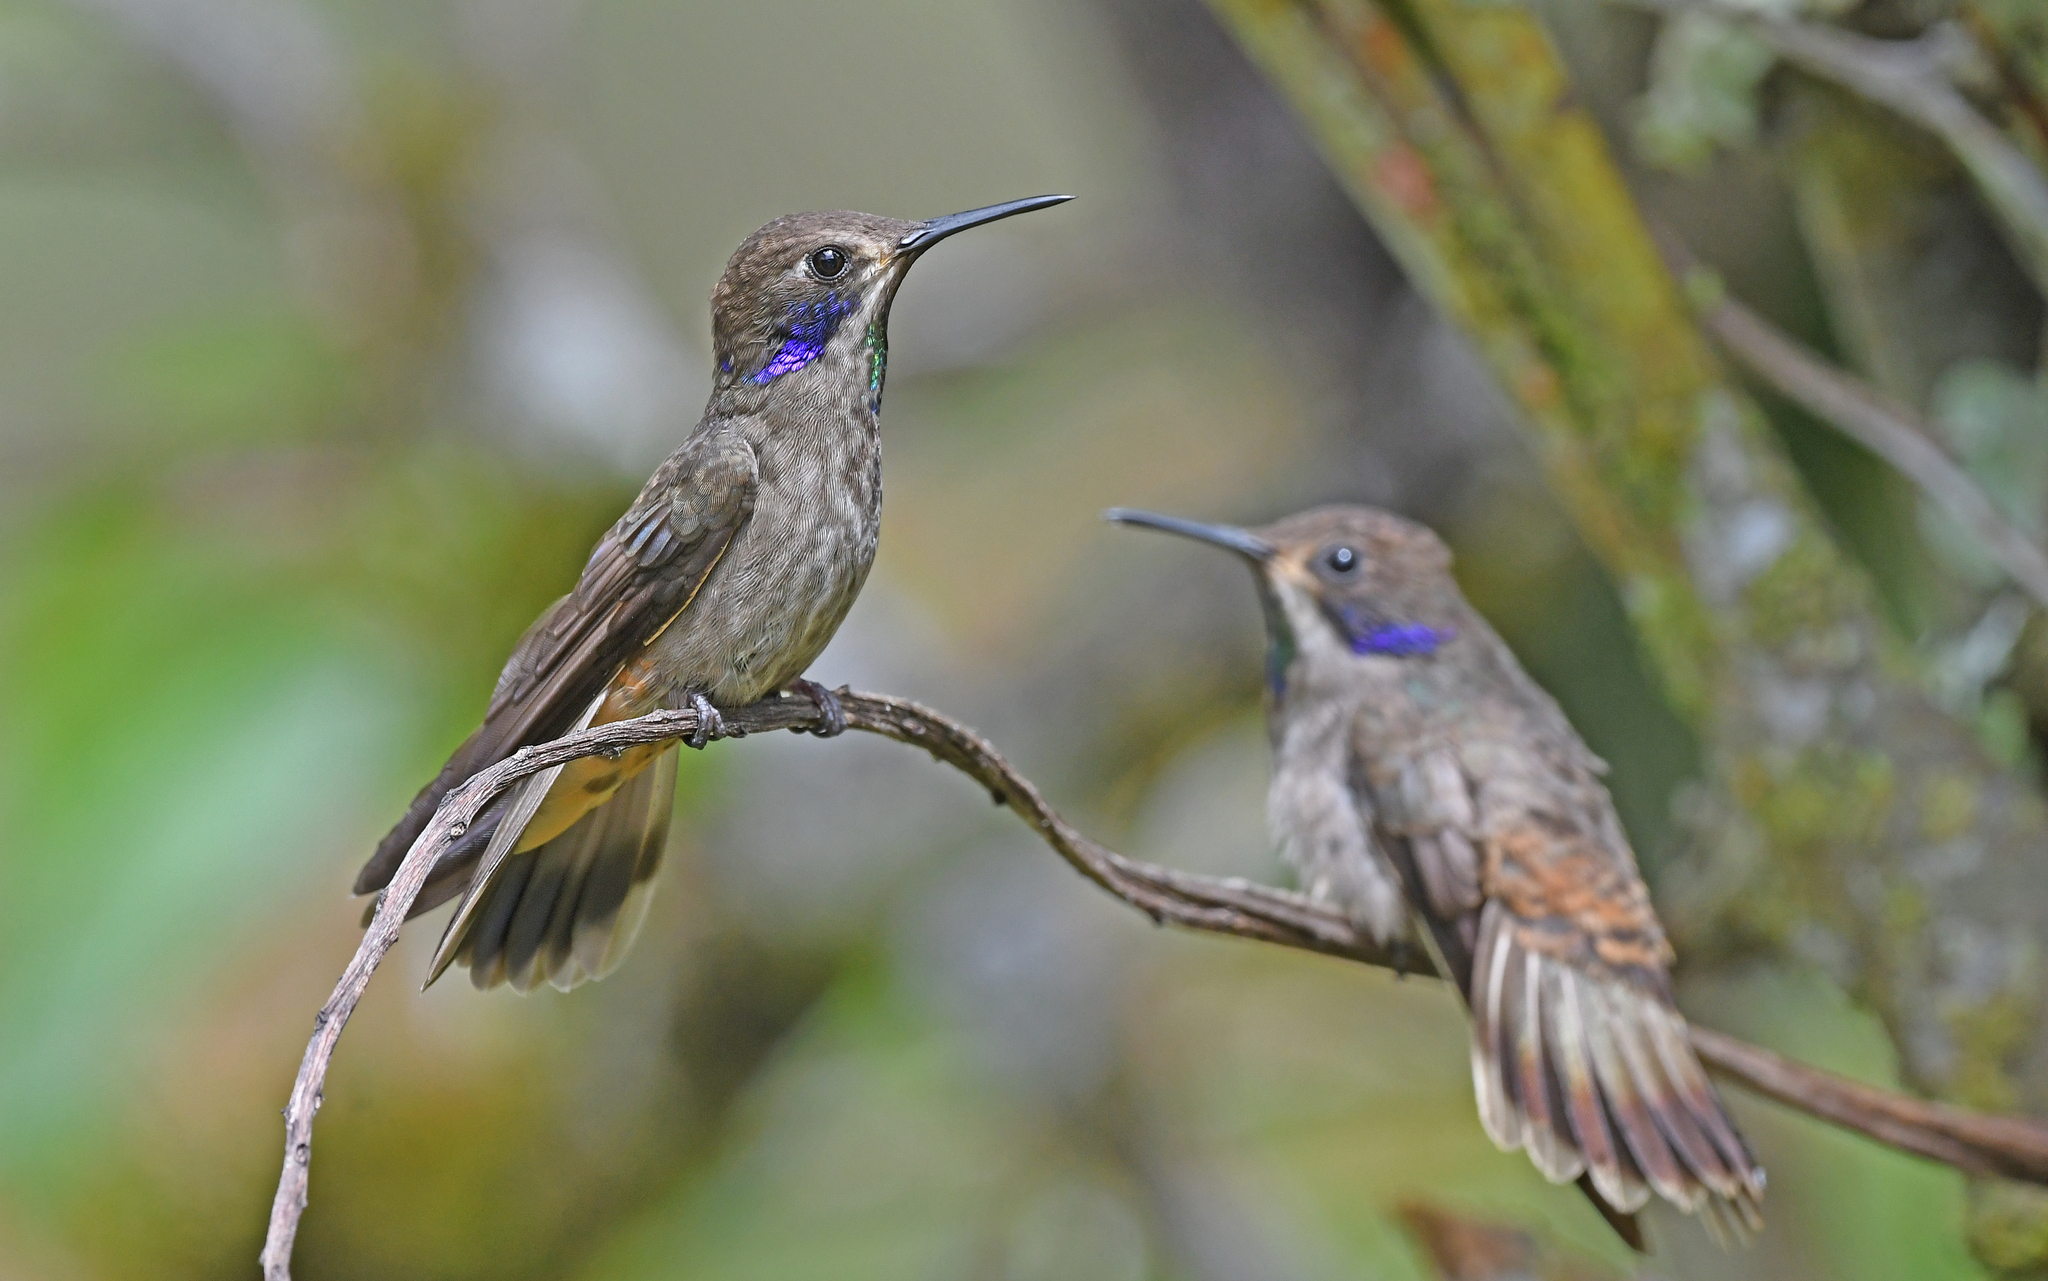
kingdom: Animalia
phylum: Chordata
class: Aves
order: Apodiformes
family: Trochilidae
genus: Colibri
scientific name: Colibri delphinae
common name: Brown violetear
